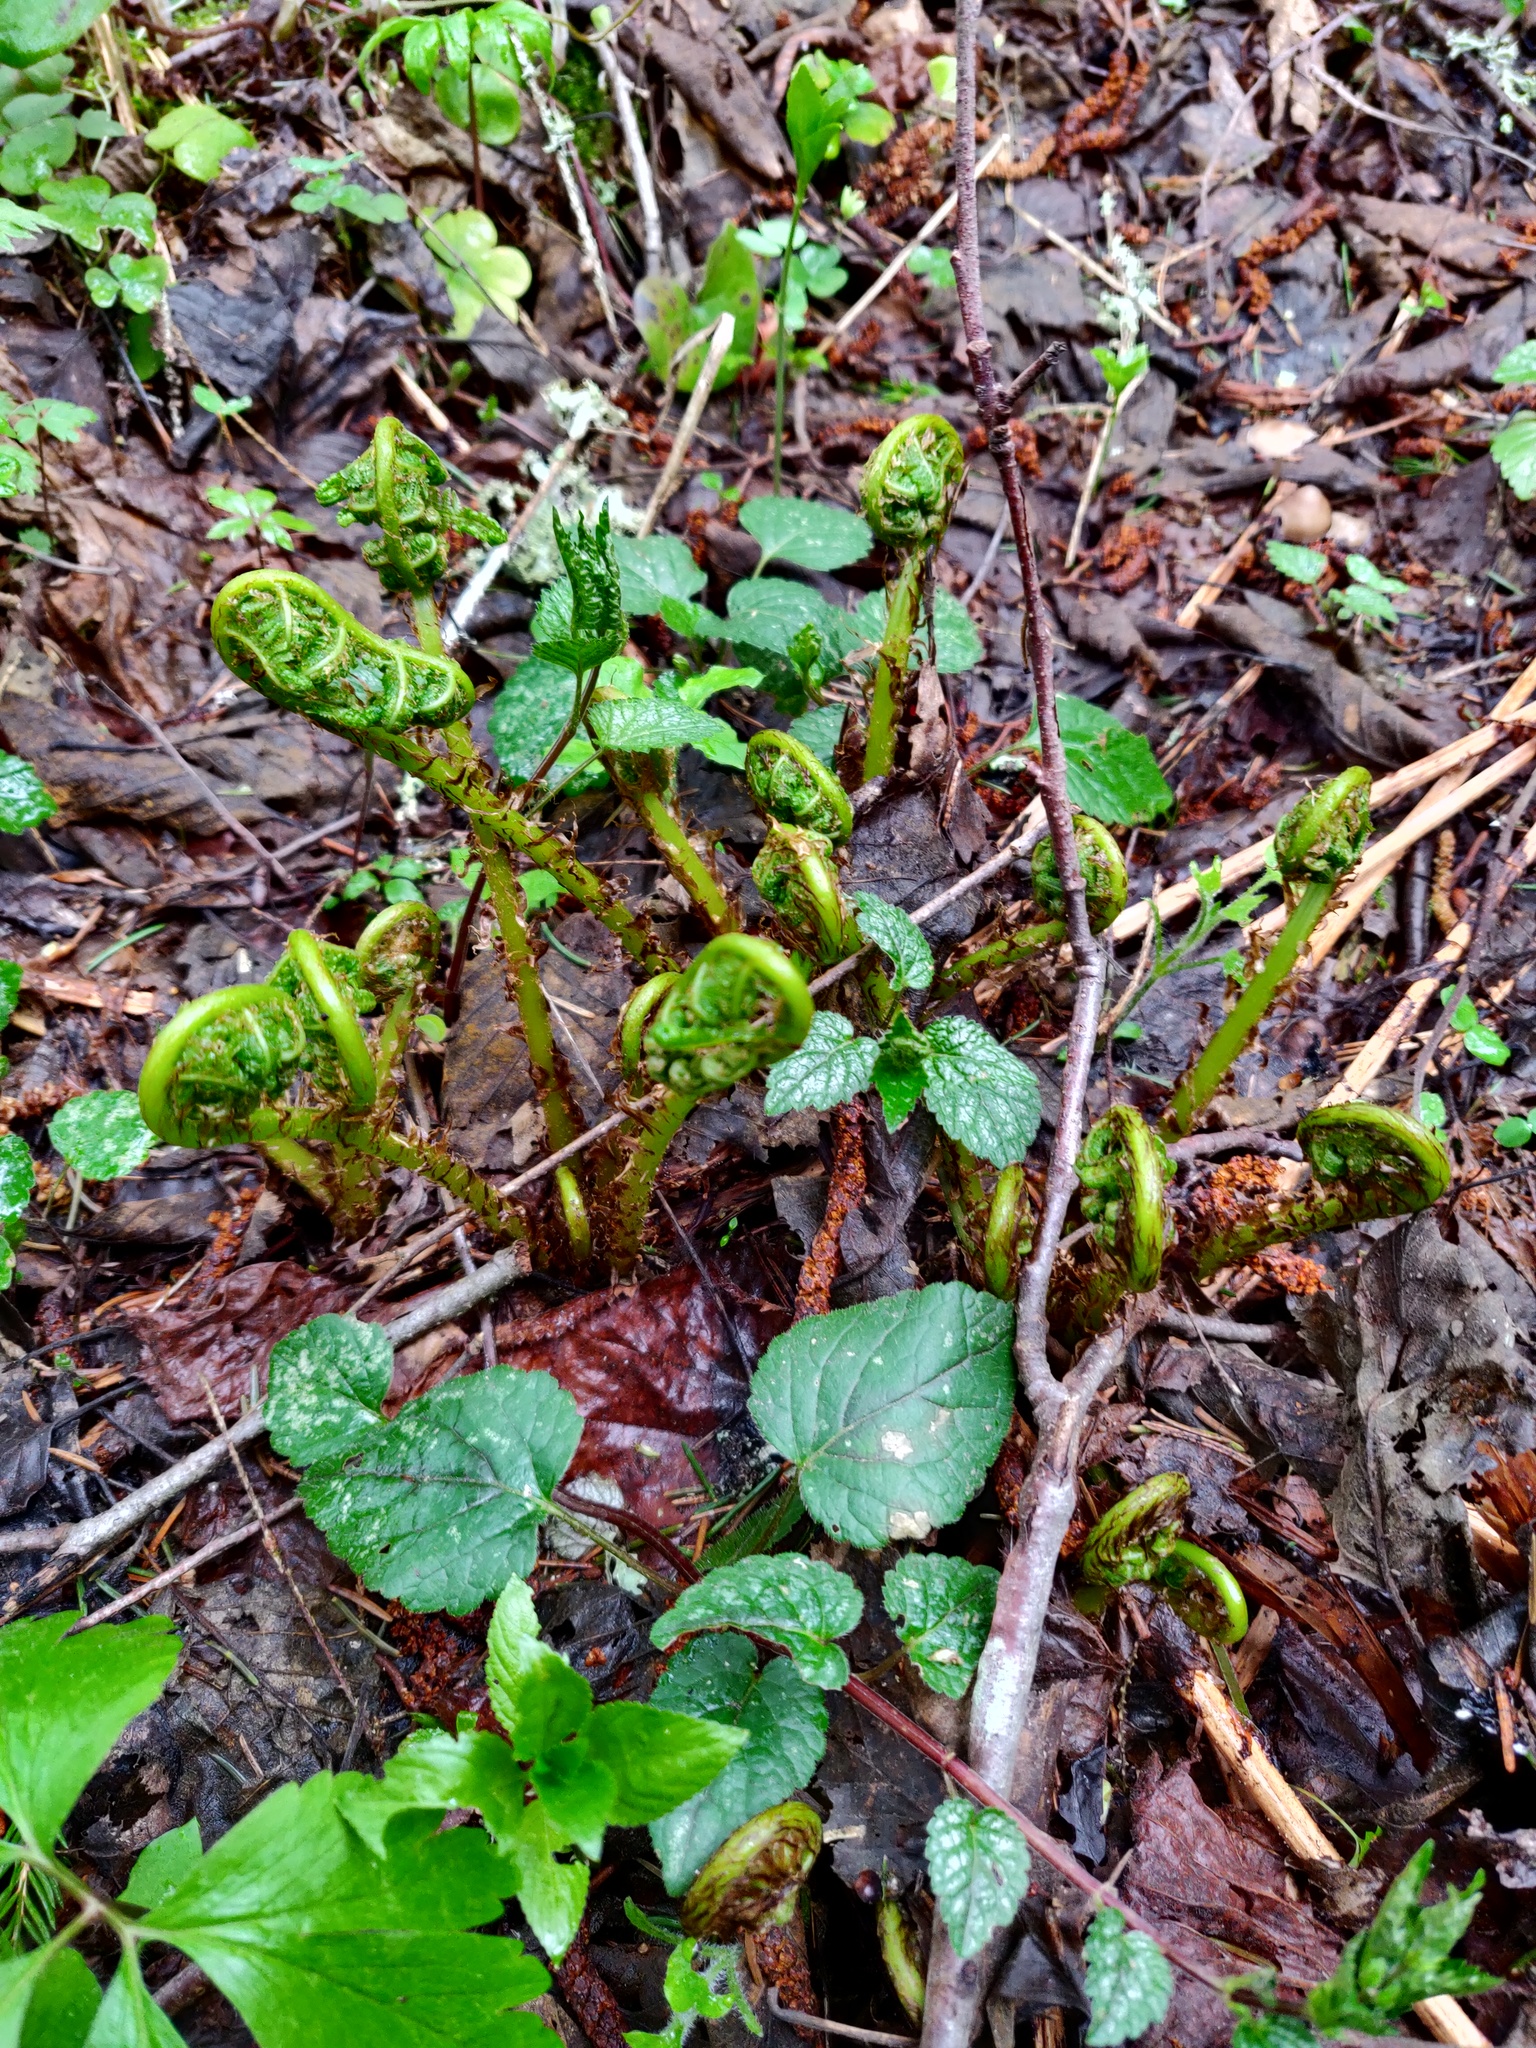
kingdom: Plantae
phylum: Tracheophyta
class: Polypodiopsida
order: Polypodiales
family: Athyriaceae
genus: Athyrium
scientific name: Athyrium filix-femina
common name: Lady fern
